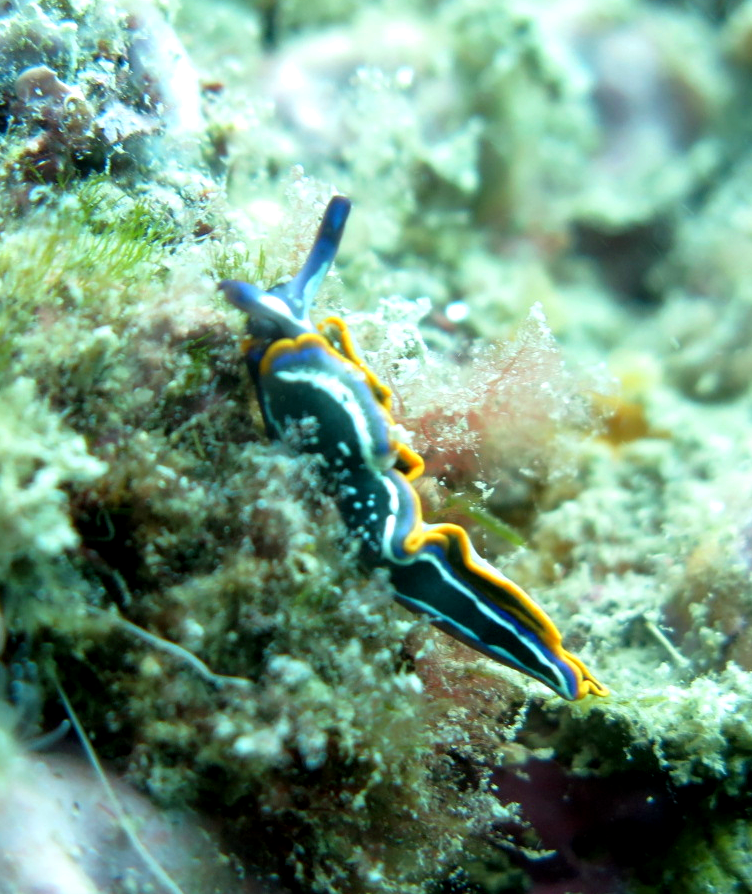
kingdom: Animalia
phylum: Mollusca
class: Gastropoda
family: Plakobranchidae
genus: Thuridilla
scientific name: Thuridilla hopei
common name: Splendid elysia
